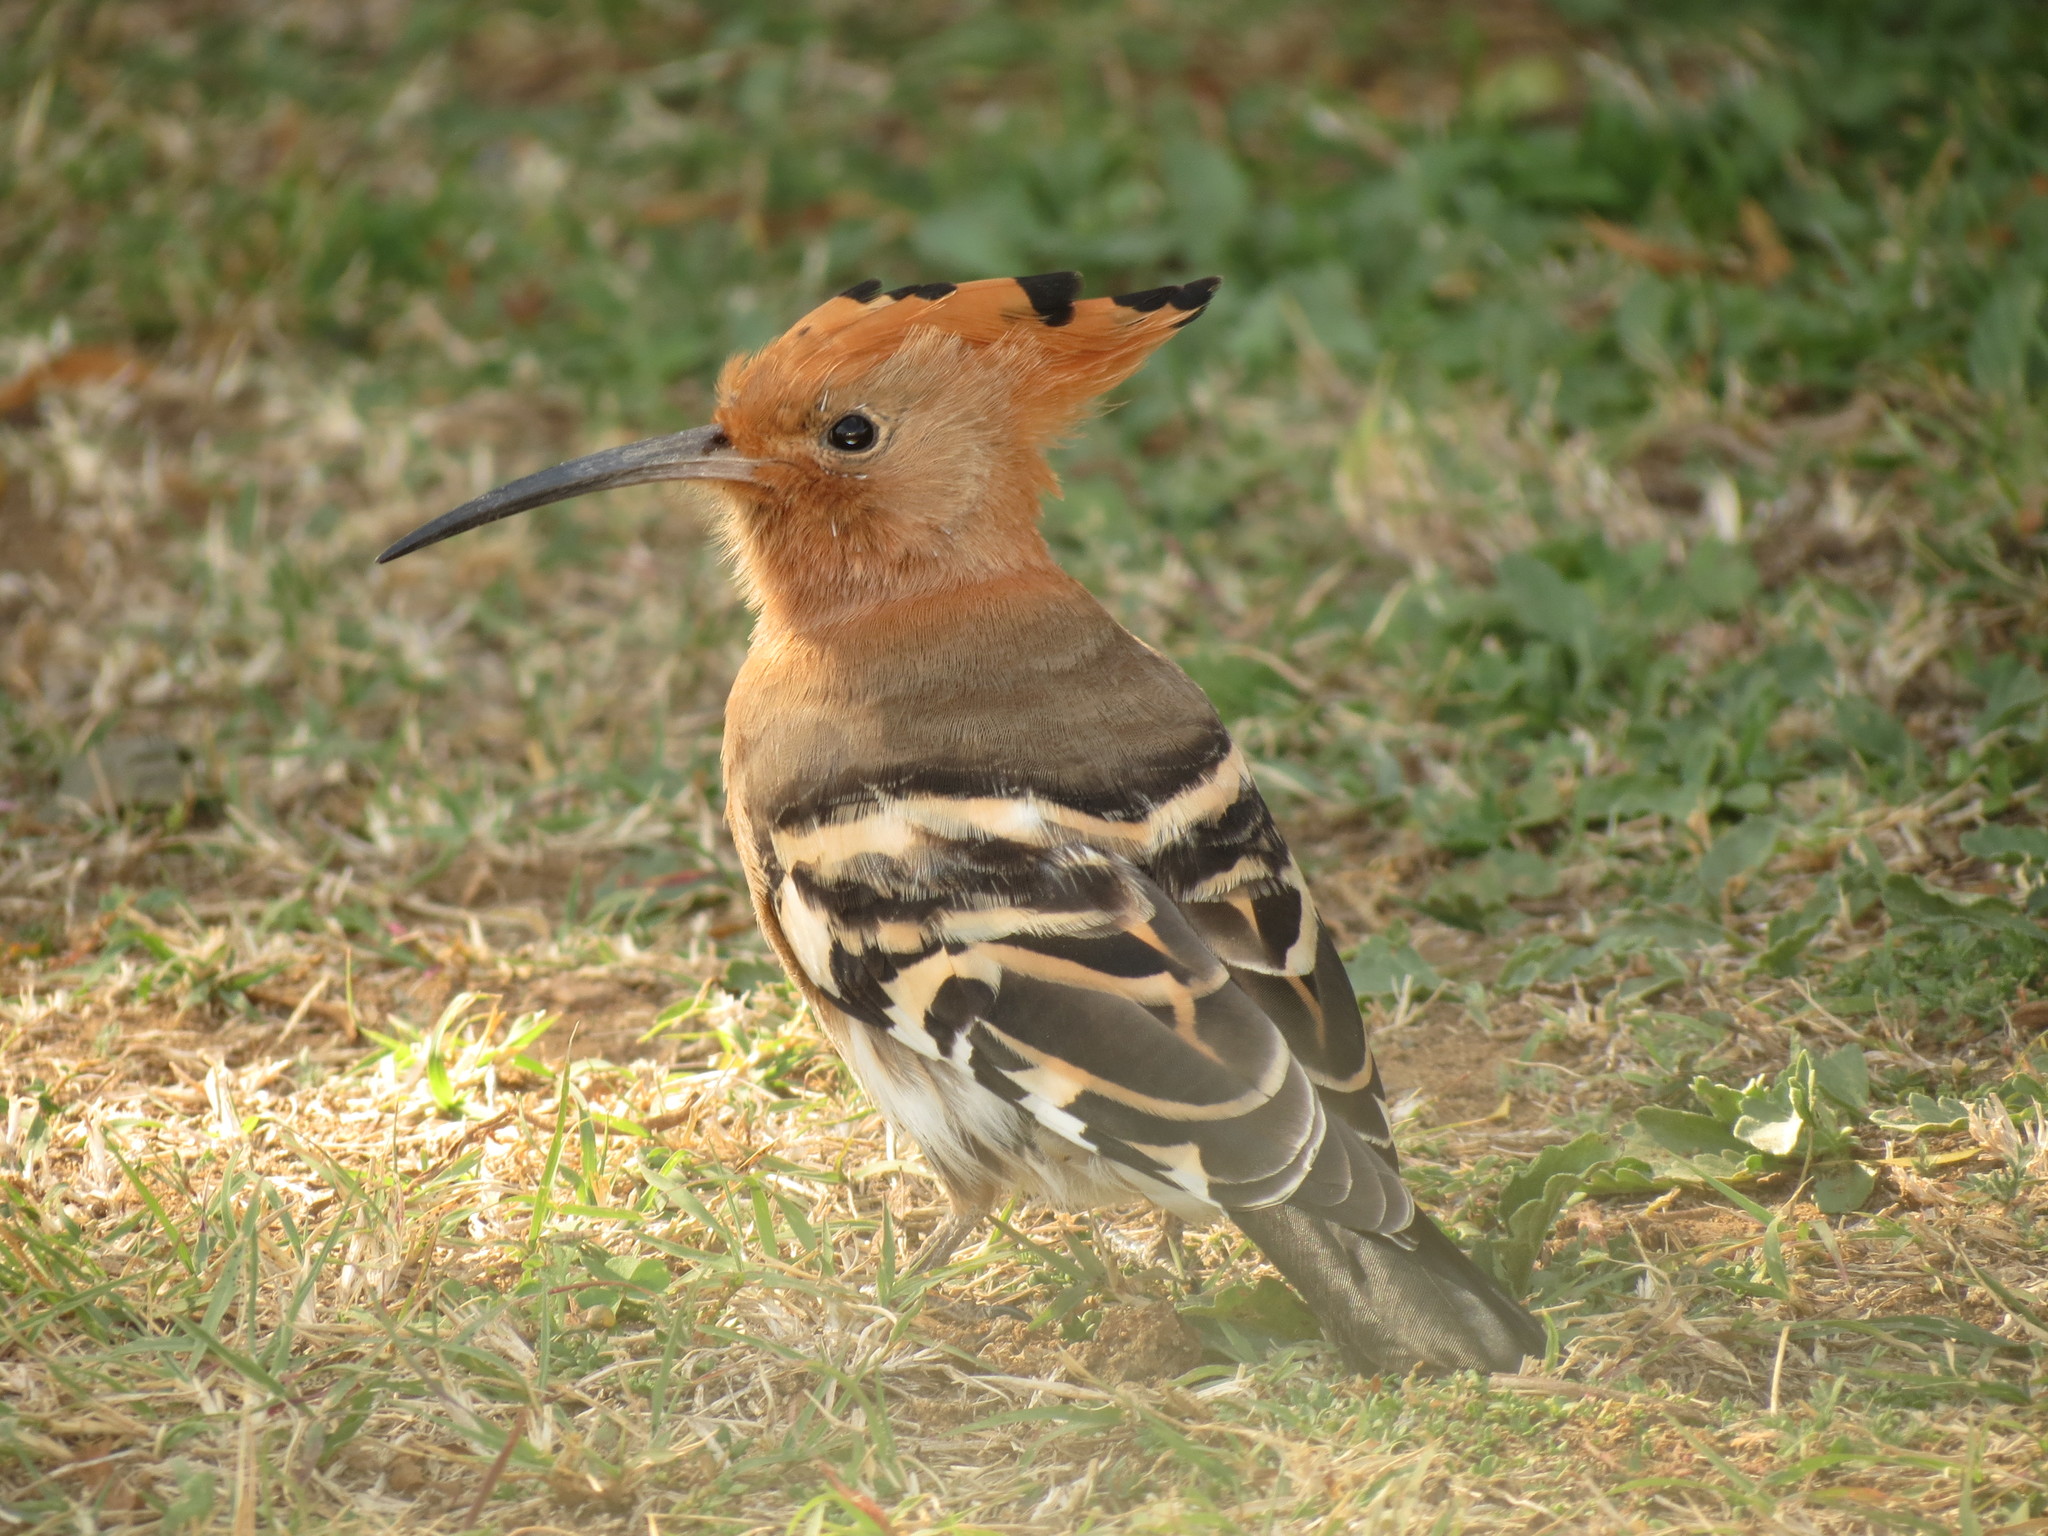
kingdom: Animalia
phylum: Chordata
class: Aves
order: Bucerotiformes
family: Upupidae
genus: Upupa
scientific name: Upupa africana
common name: African hoopoe
